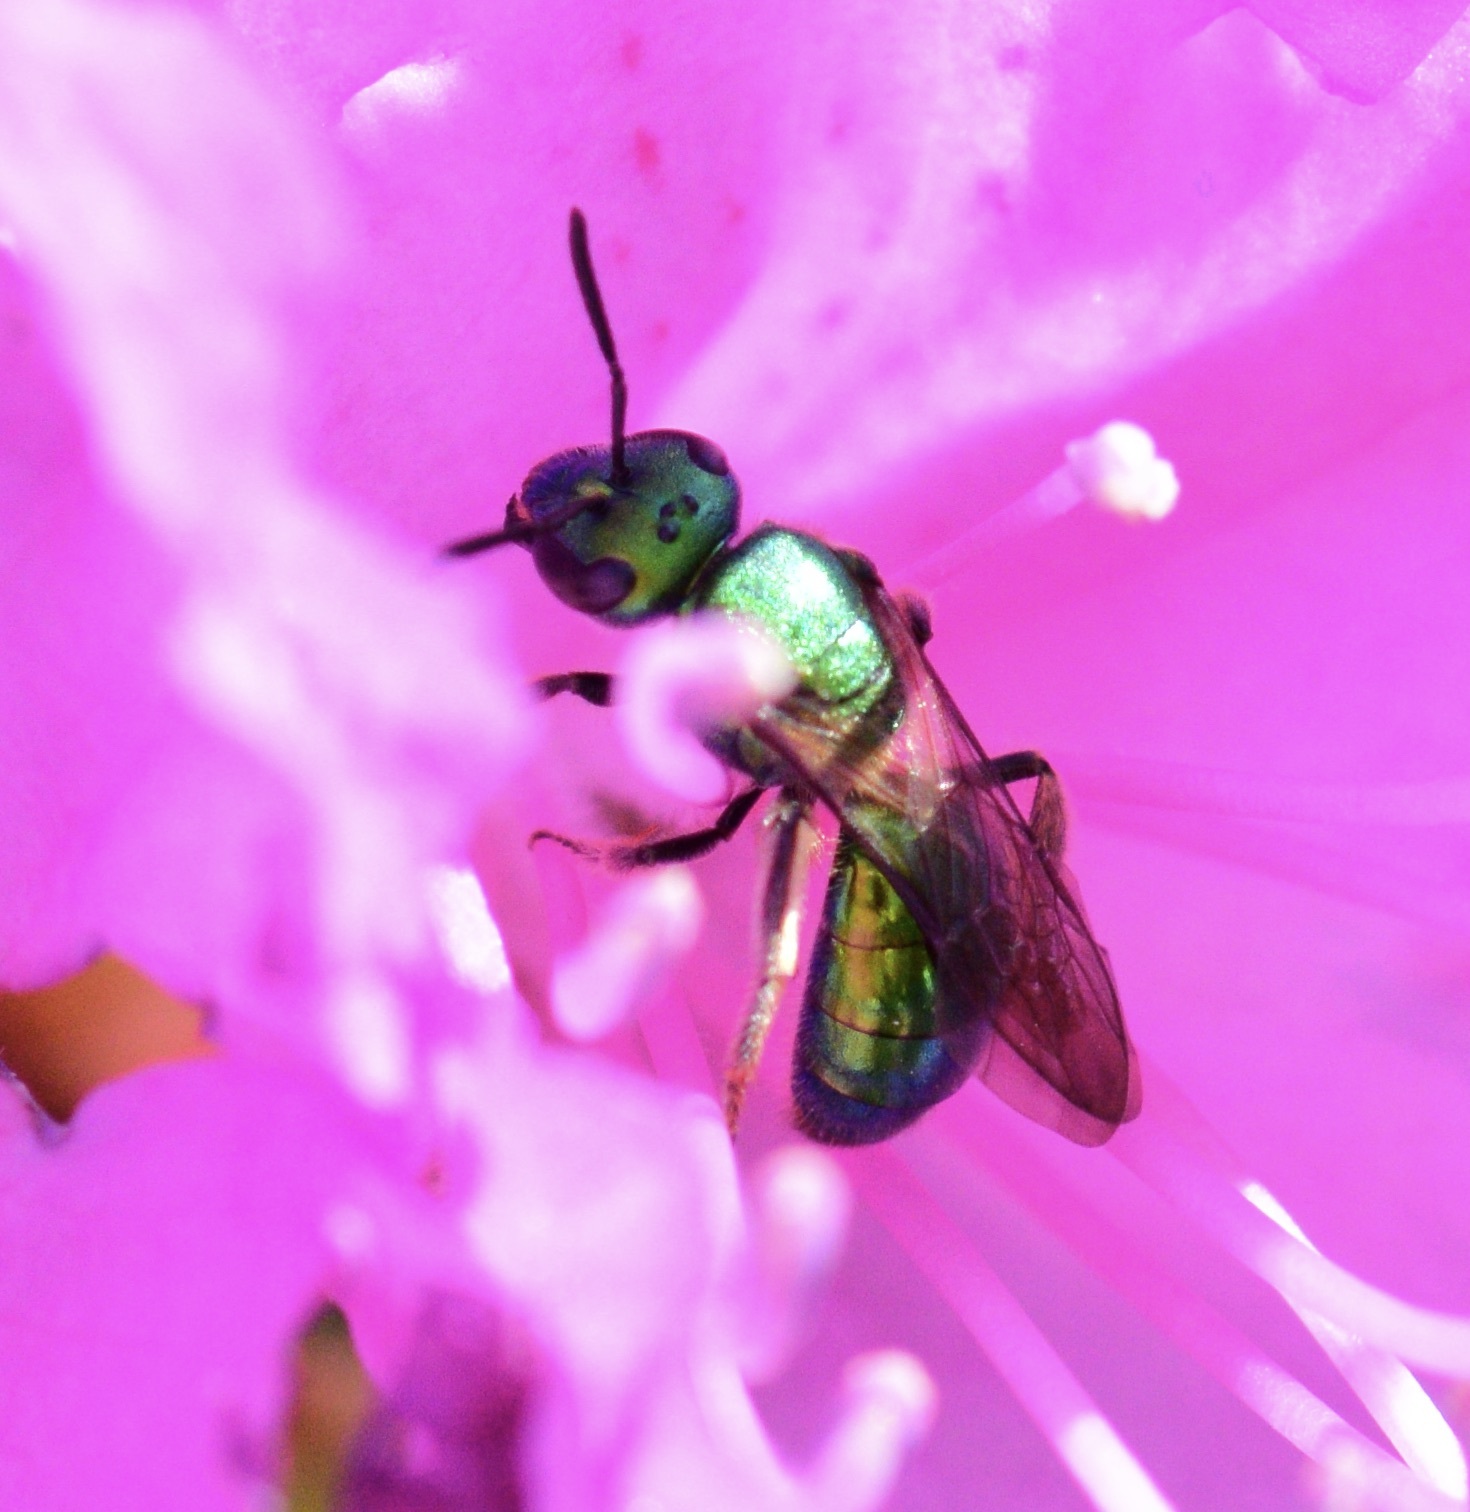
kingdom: Animalia
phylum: Arthropoda
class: Insecta
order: Hymenoptera
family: Halictidae
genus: Augochlora
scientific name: Augochlora pura
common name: Pure green sweat bee
